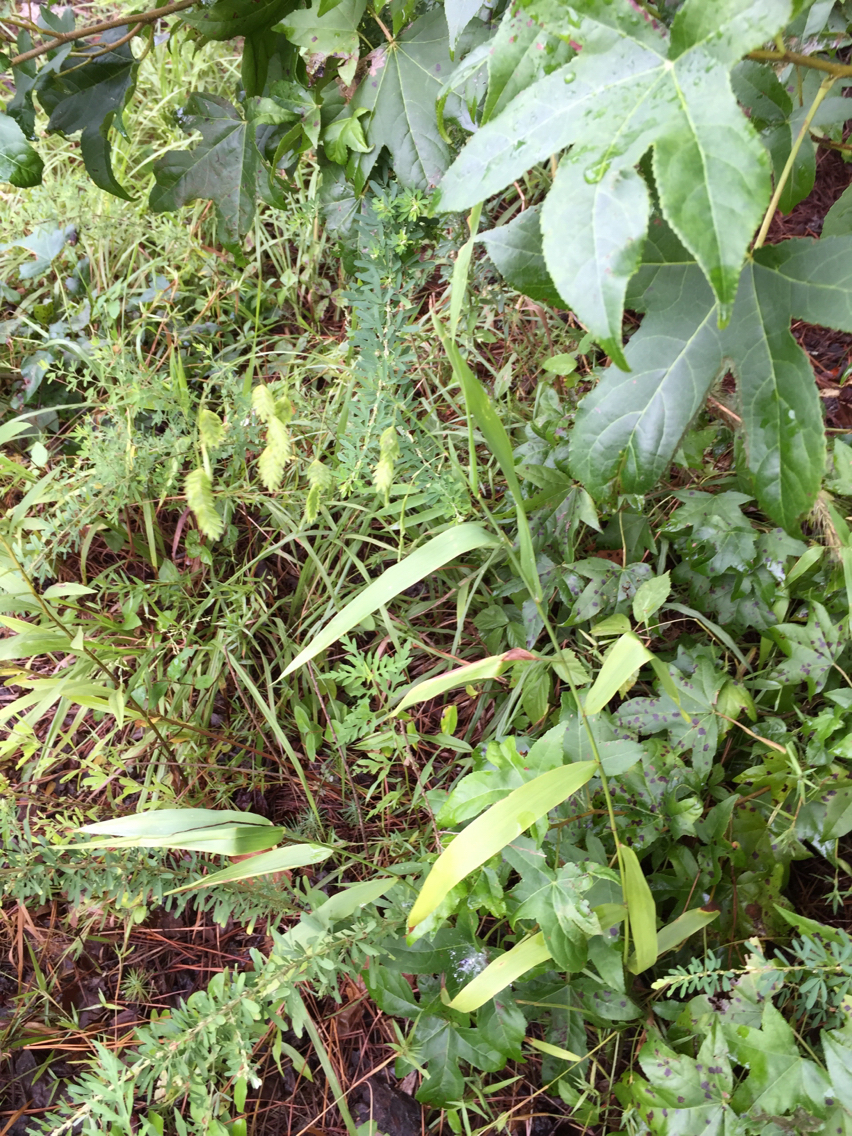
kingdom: Plantae
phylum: Tracheophyta
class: Liliopsida
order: Poales
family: Poaceae
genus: Chasmanthium
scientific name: Chasmanthium latifolium
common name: Broad-leaved chasmanthium
